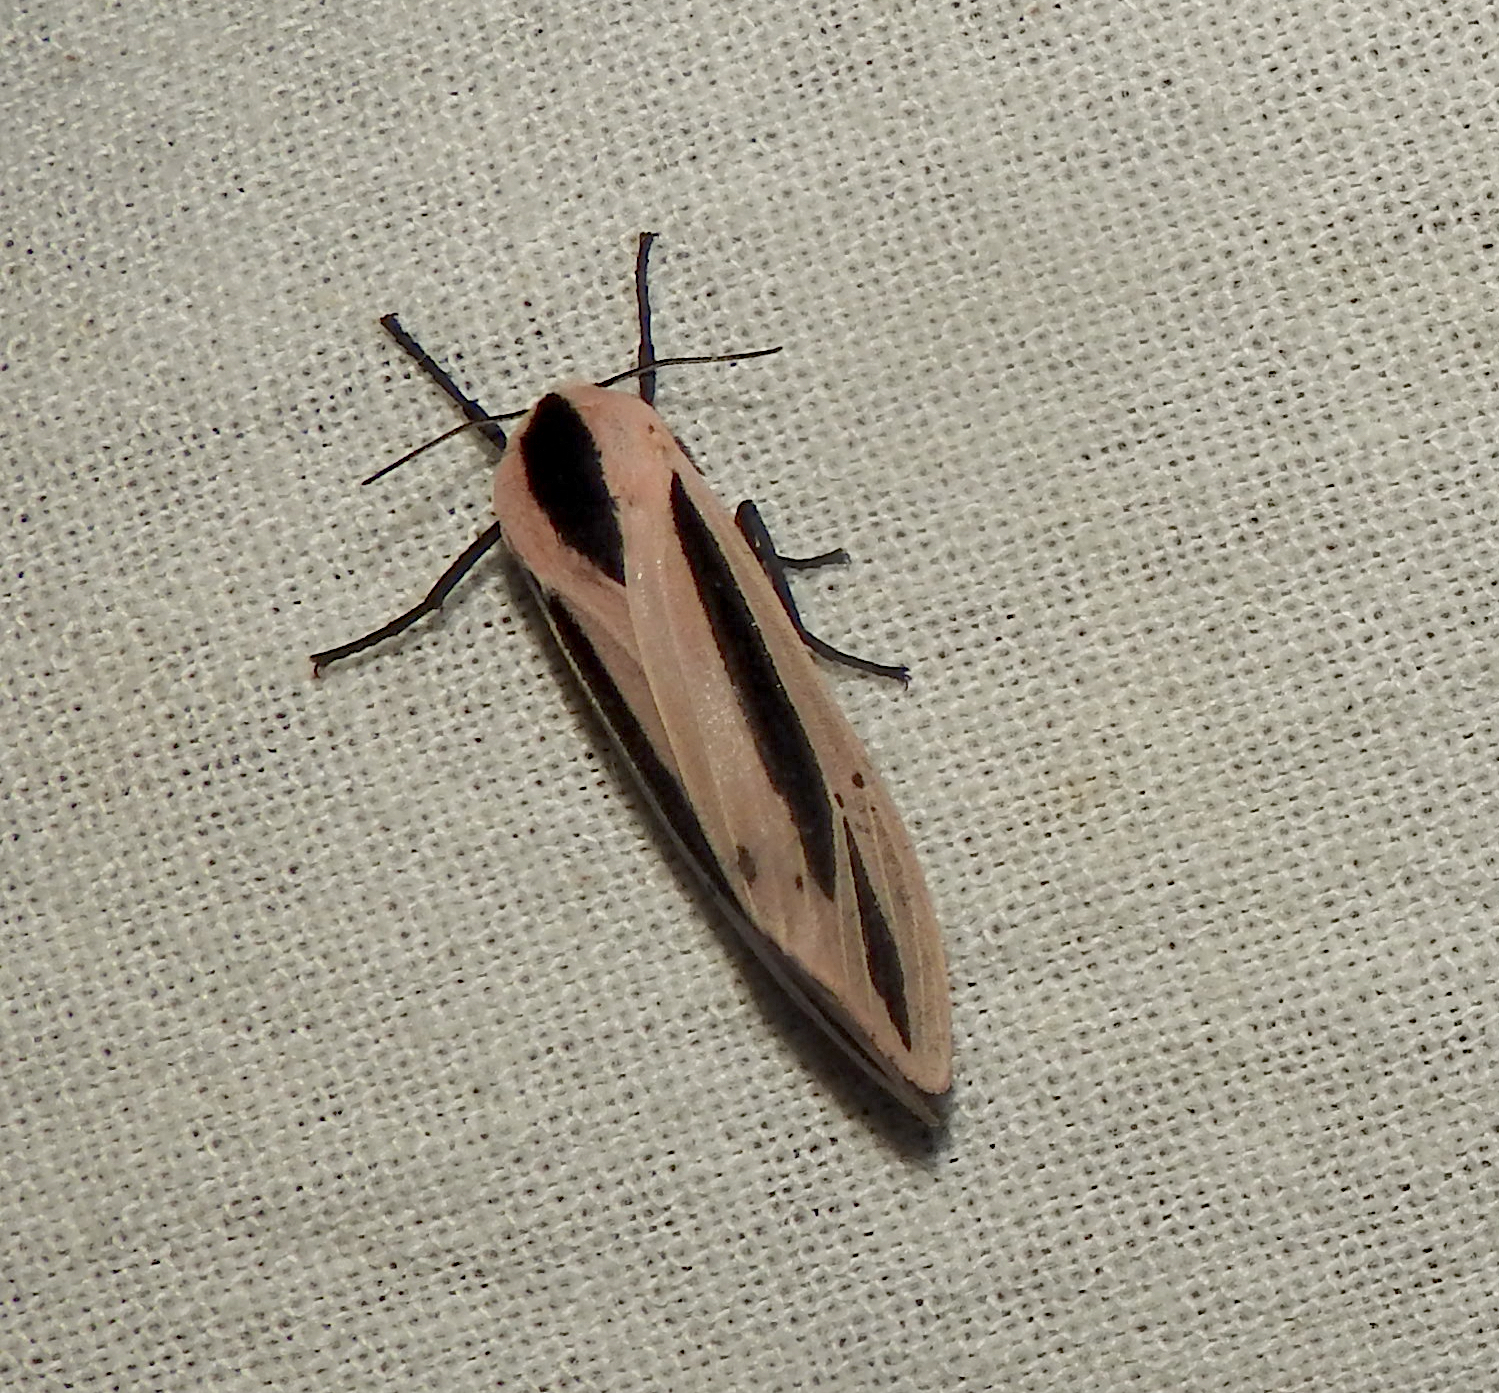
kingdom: Animalia
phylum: Arthropoda
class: Insecta
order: Lepidoptera
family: Erebidae
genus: Creatonotos
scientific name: Creatonotos
